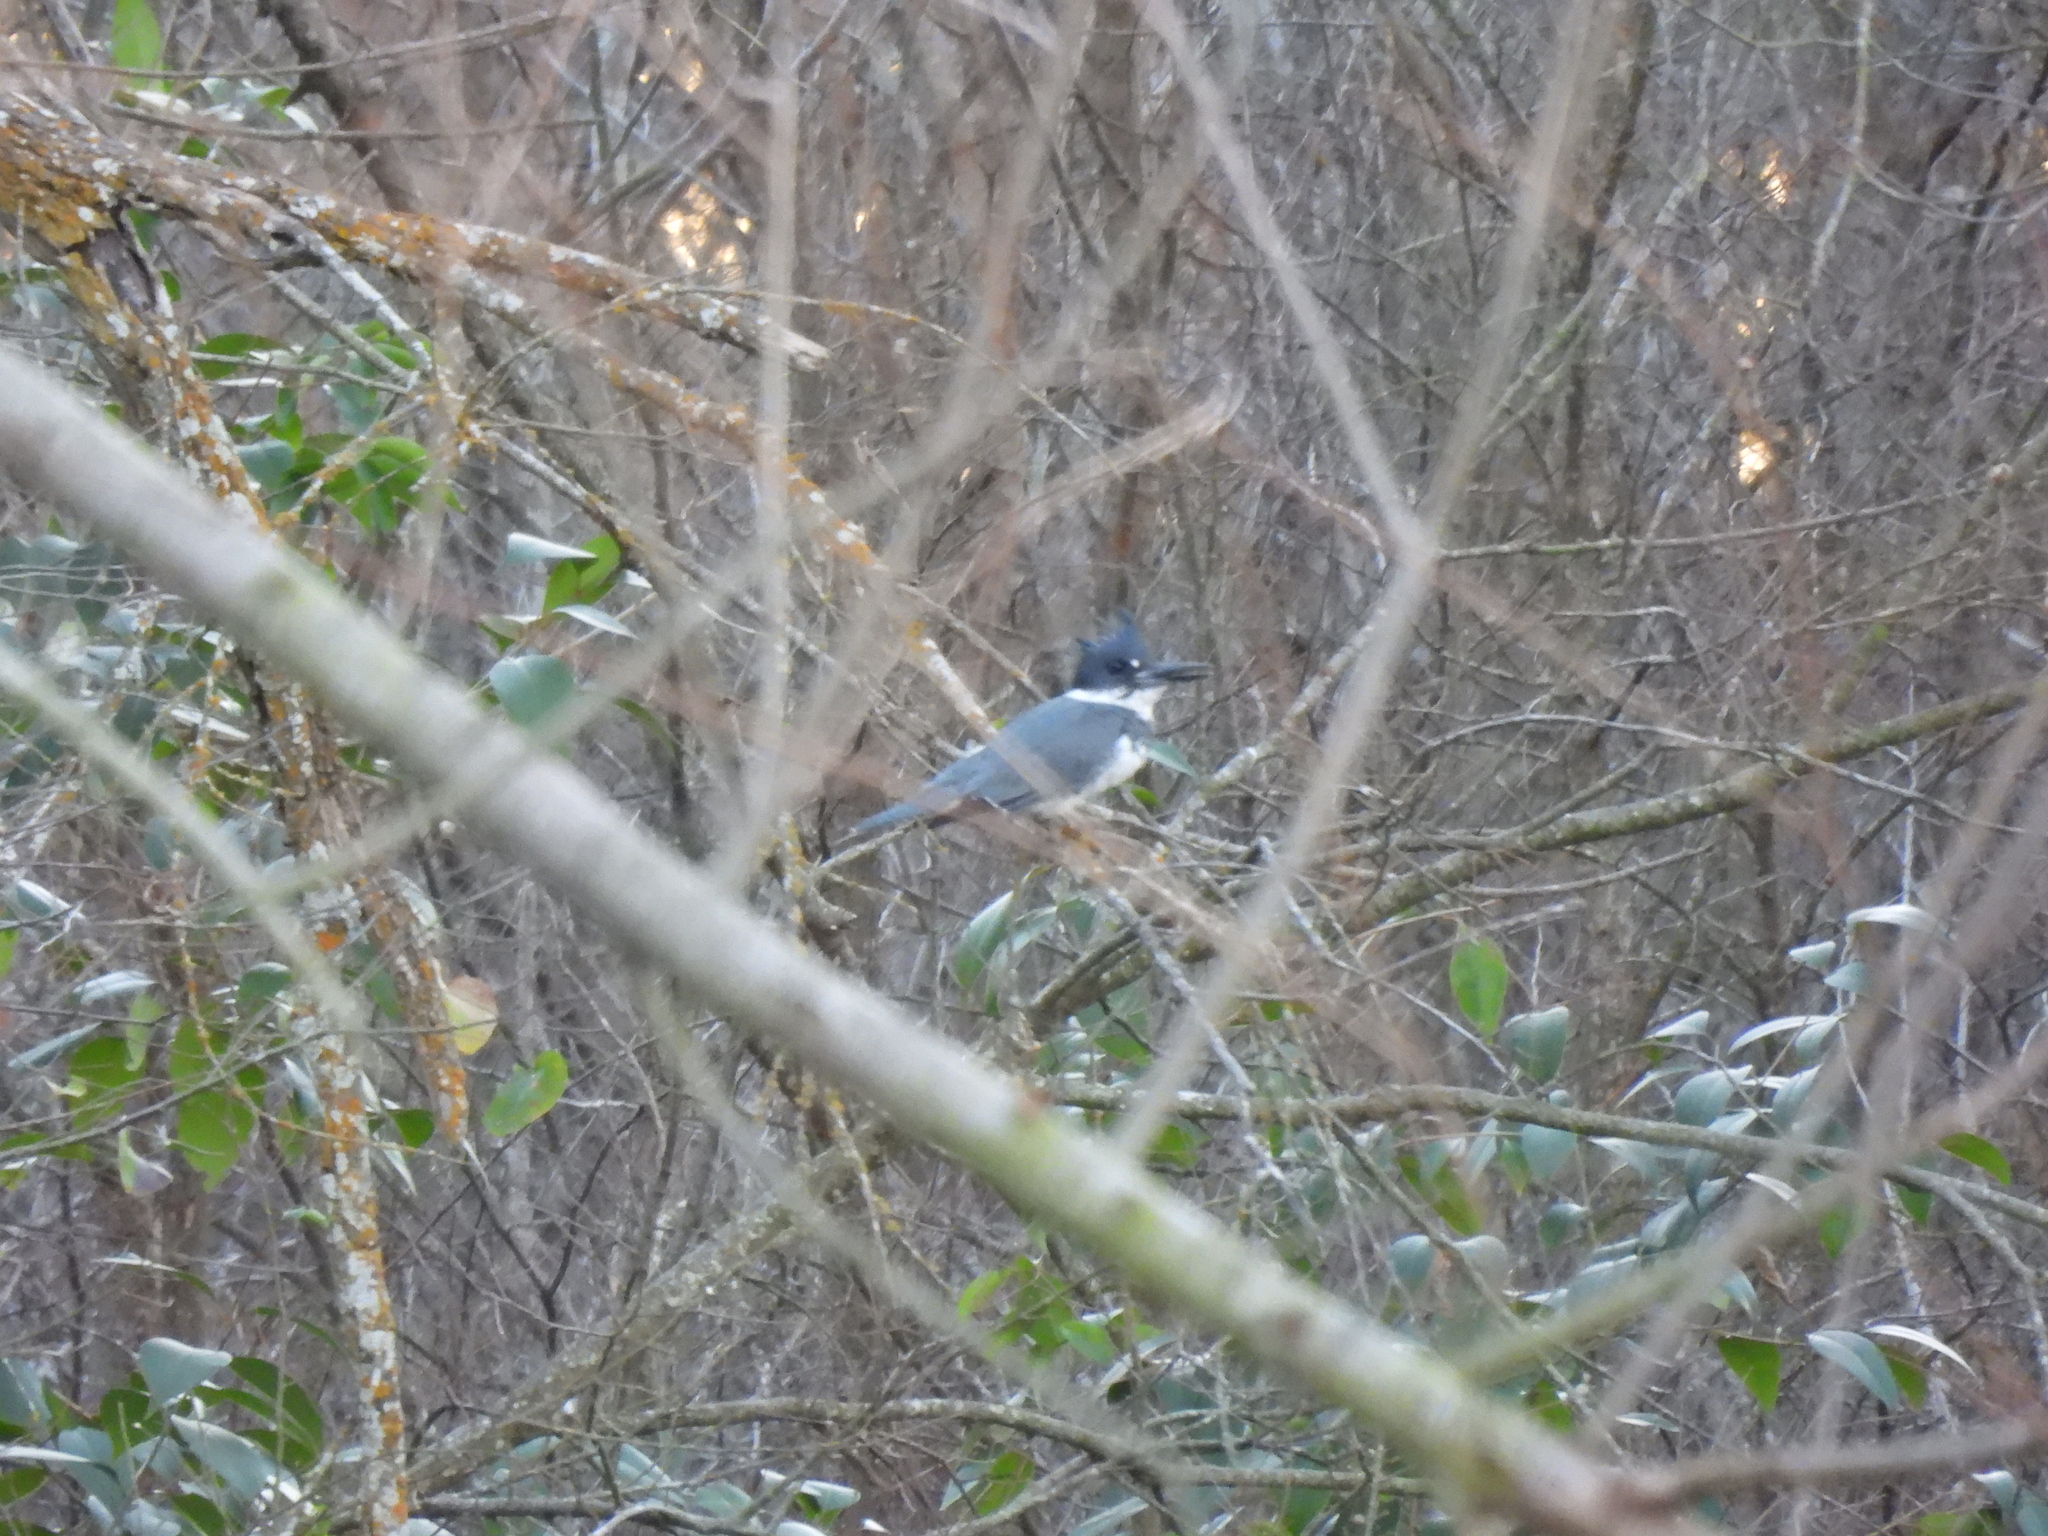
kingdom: Animalia
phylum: Chordata
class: Aves
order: Coraciiformes
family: Alcedinidae
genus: Megaceryle
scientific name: Megaceryle alcyon
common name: Belted kingfisher
